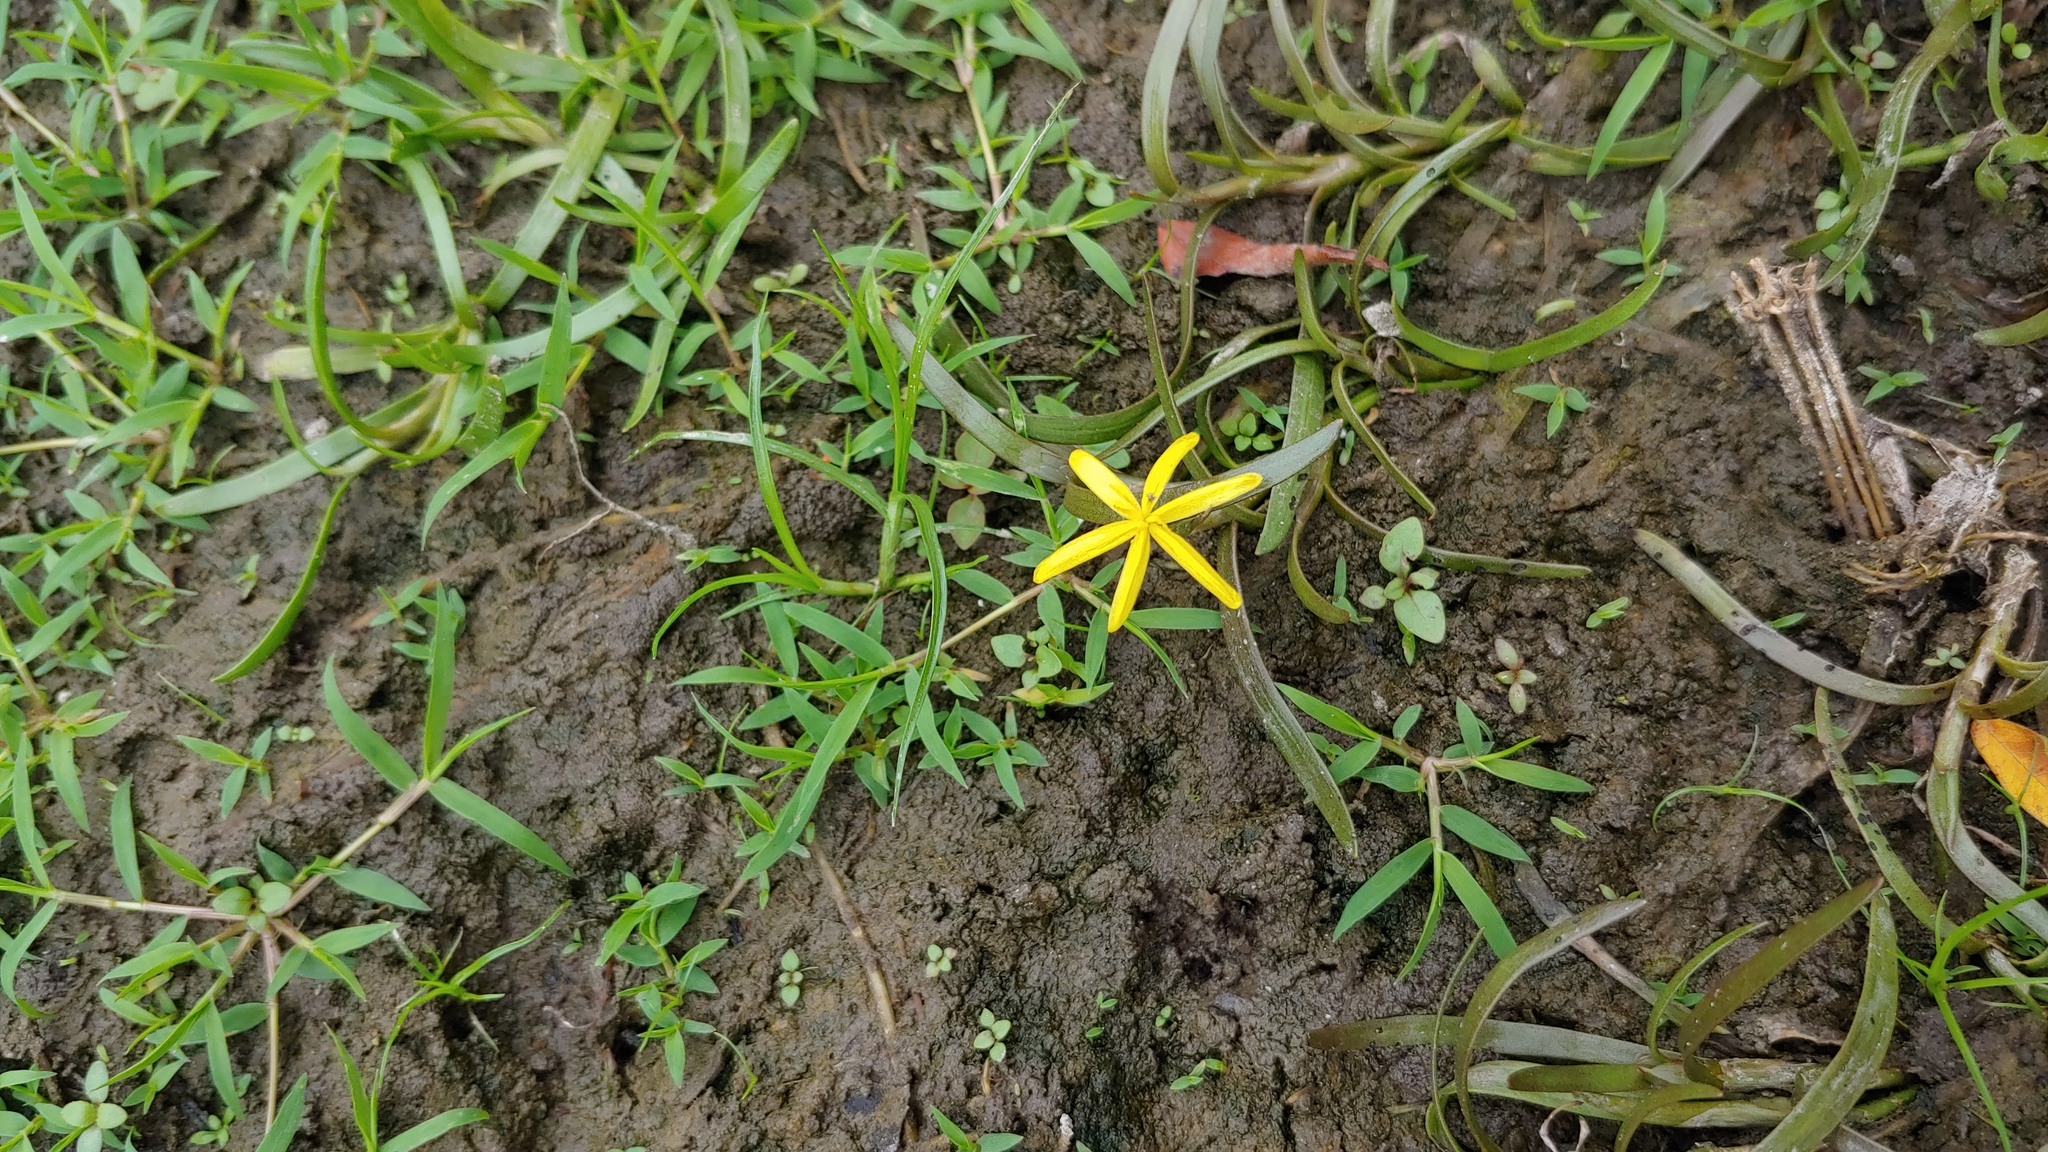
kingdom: Plantae
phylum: Tracheophyta
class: Liliopsida
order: Commelinales
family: Pontederiaceae
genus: Heteranthera
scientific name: Heteranthera dubia
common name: Grass-leaved mud plantain
